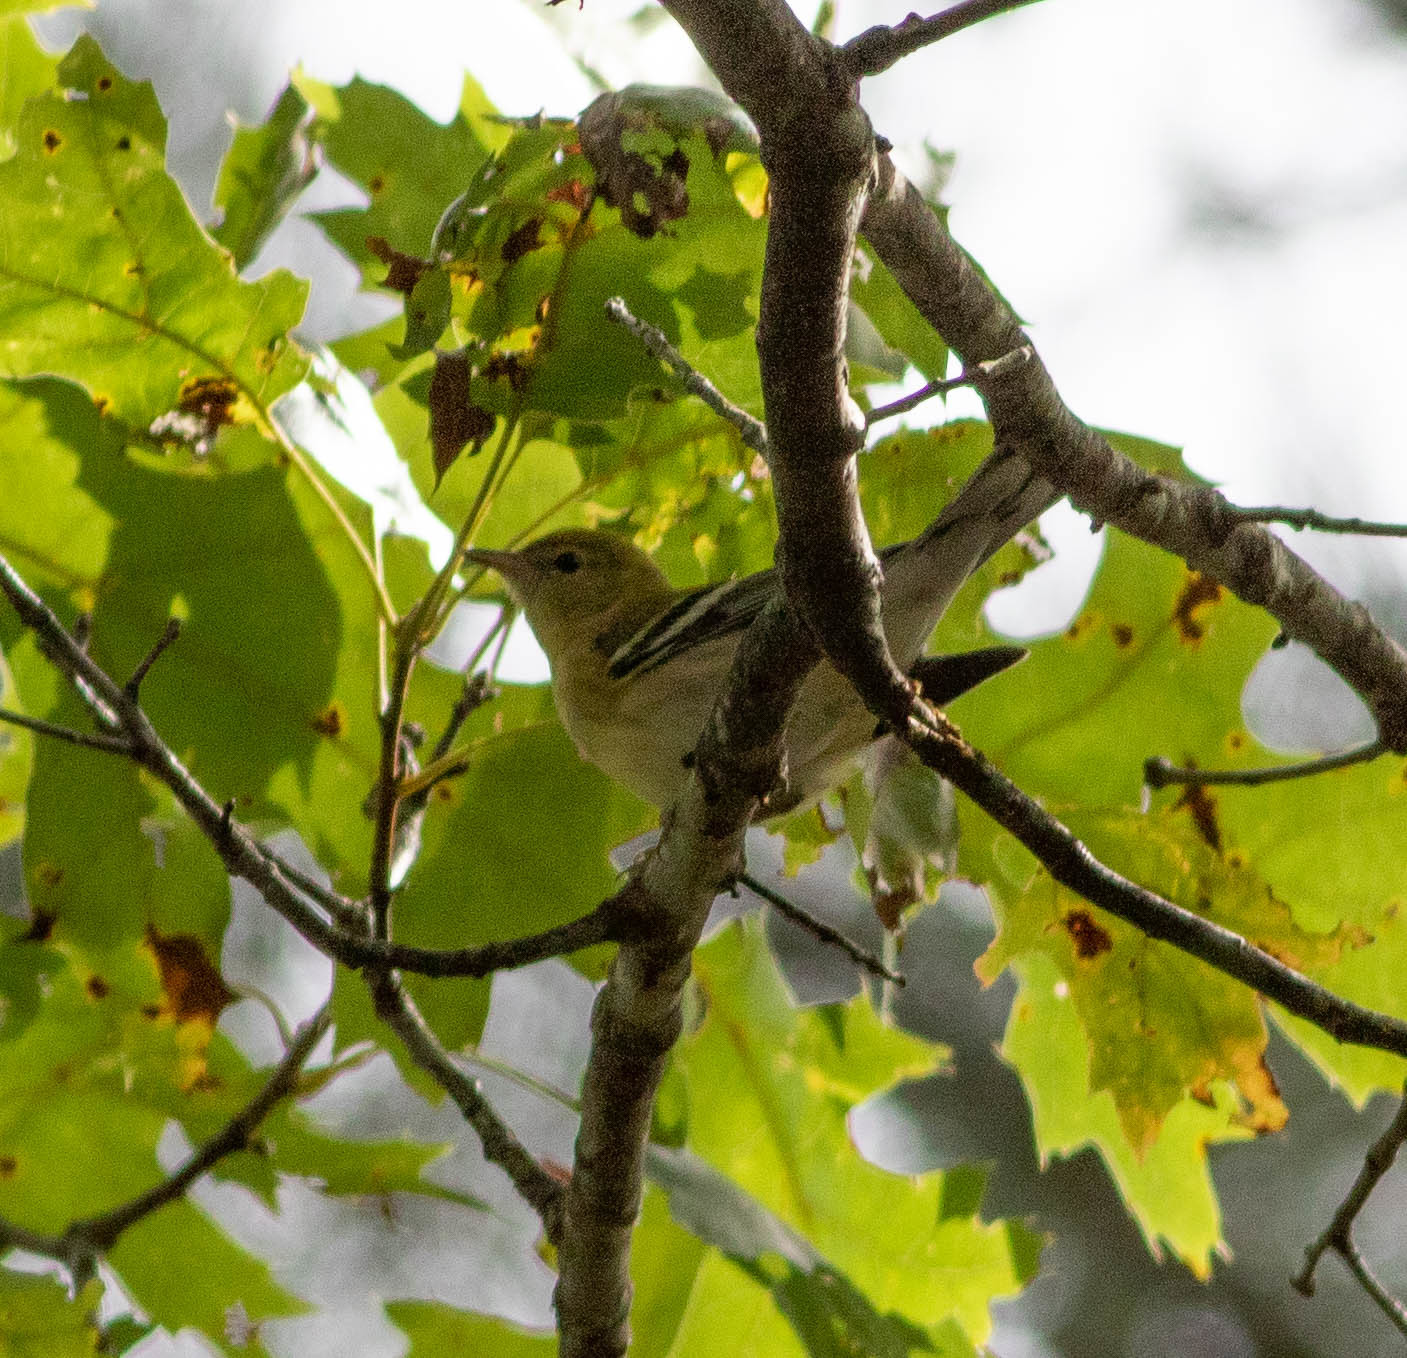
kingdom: Animalia
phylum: Chordata
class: Aves
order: Passeriformes
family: Parulidae
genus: Setophaga
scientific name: Setophaga castanea
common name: Bay-breasted warbler
